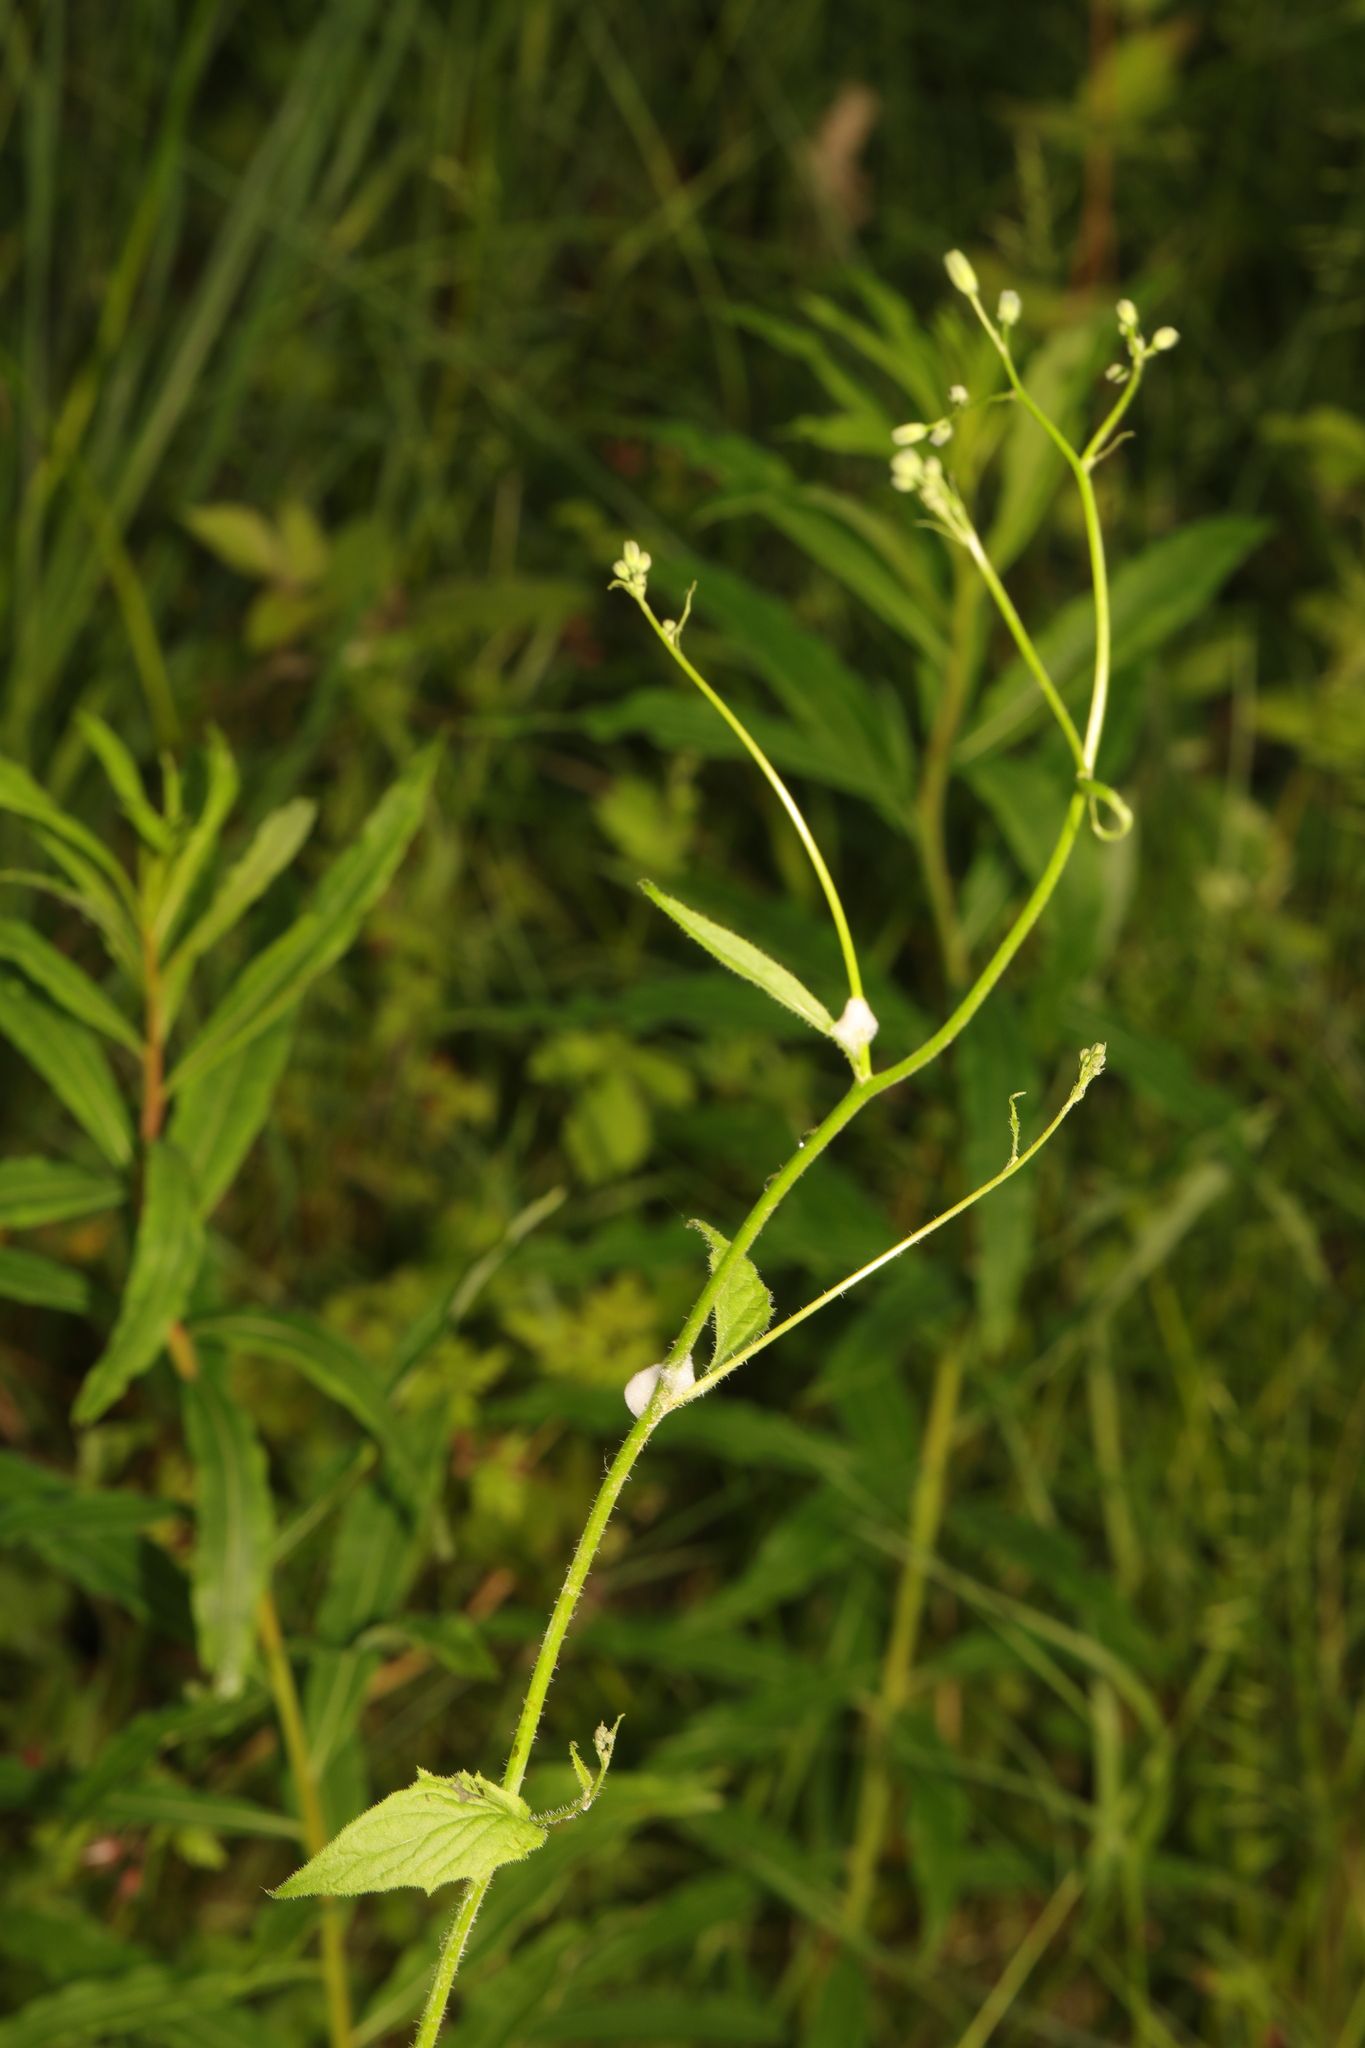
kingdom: Plantae
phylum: Tracheophyta
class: Magnoliopsida
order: Asterales
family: Asteraceae
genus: Lapsana
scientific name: Lapsana communis
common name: Nipplewort
